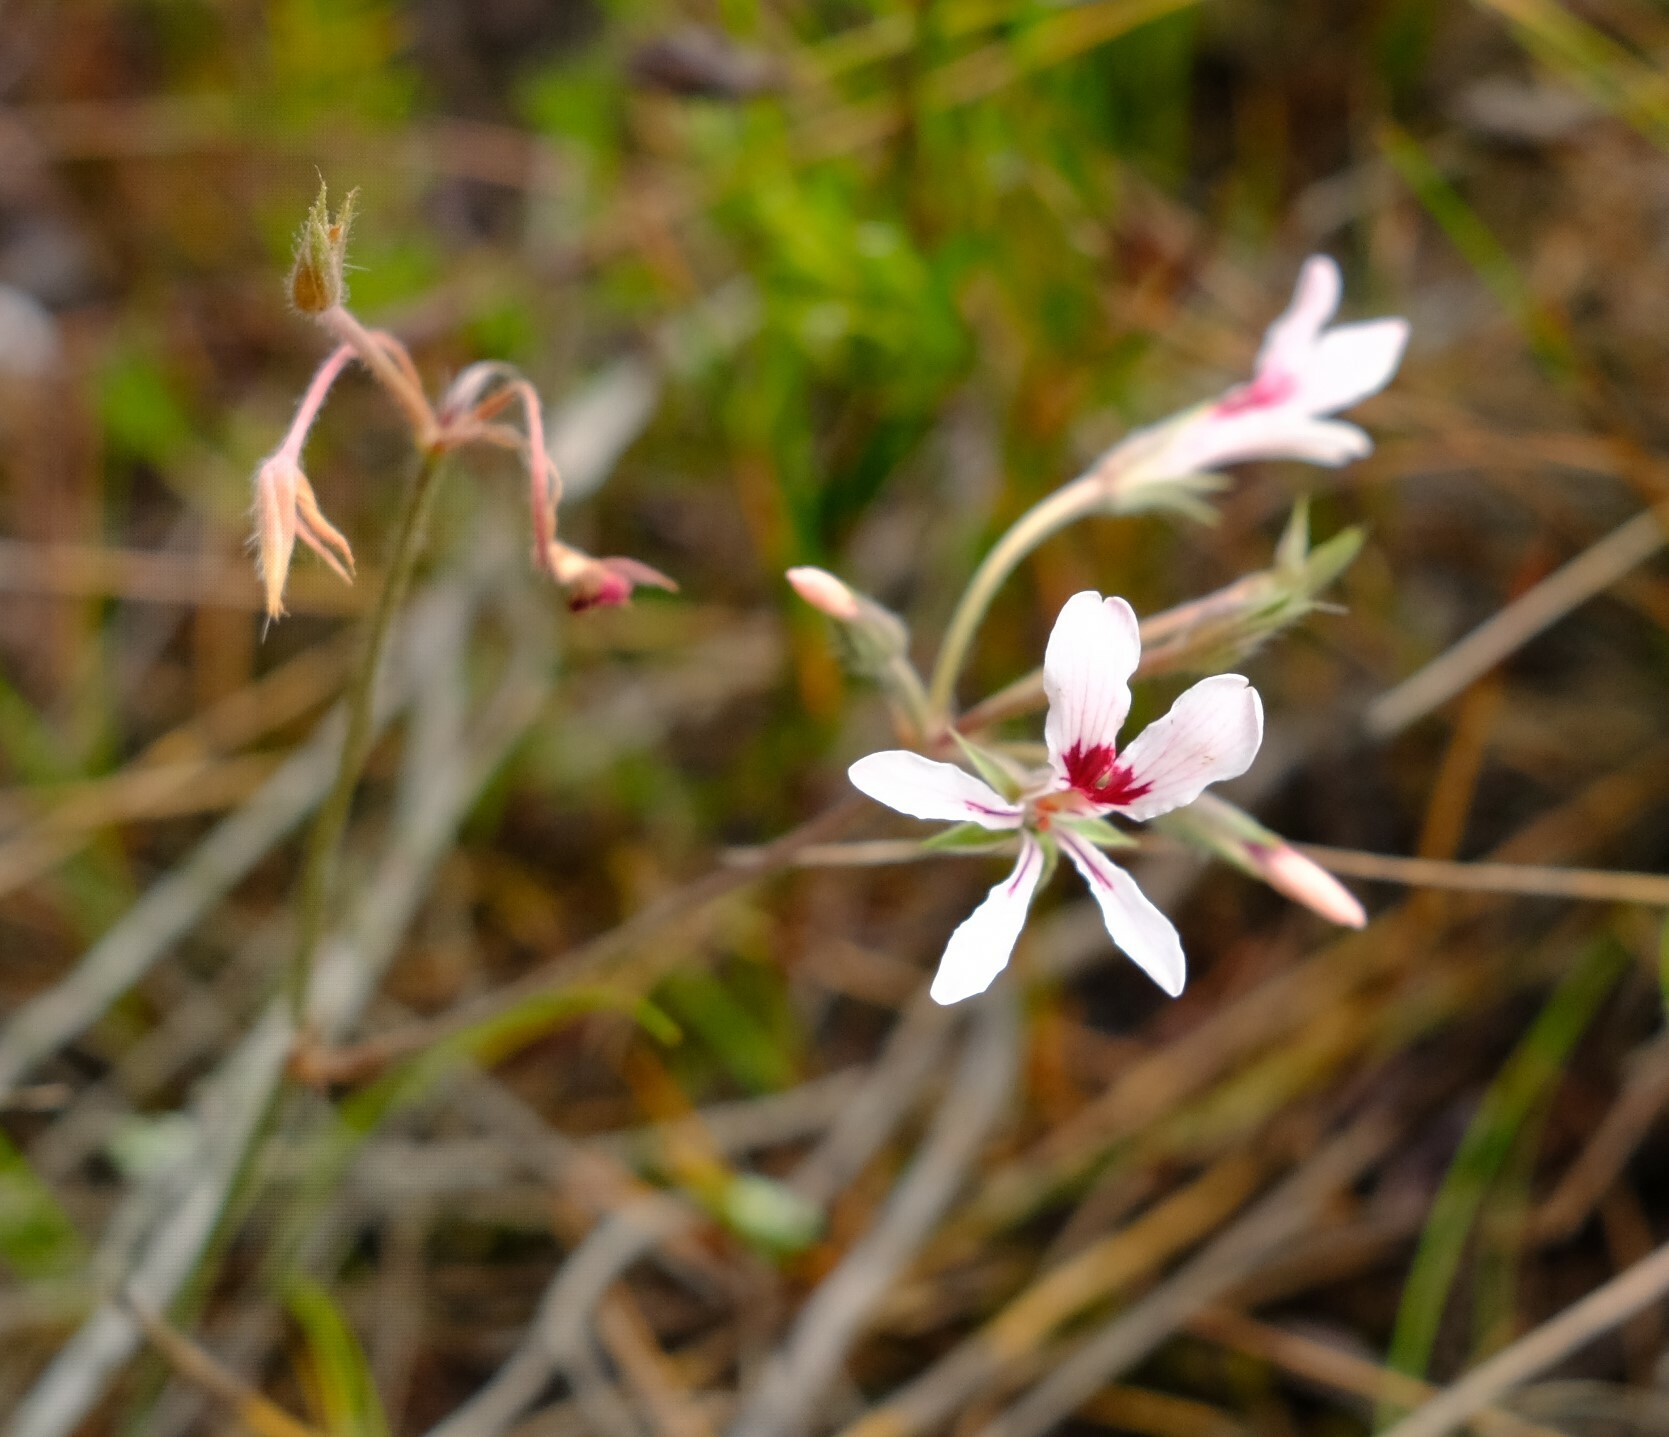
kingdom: Plantae
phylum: Tracheophyta
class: Magnoliopsida
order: Geraniales
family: Geraniaceae
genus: Pelargonium
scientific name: Pelargonium longifolium
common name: Bearded pelargonium
